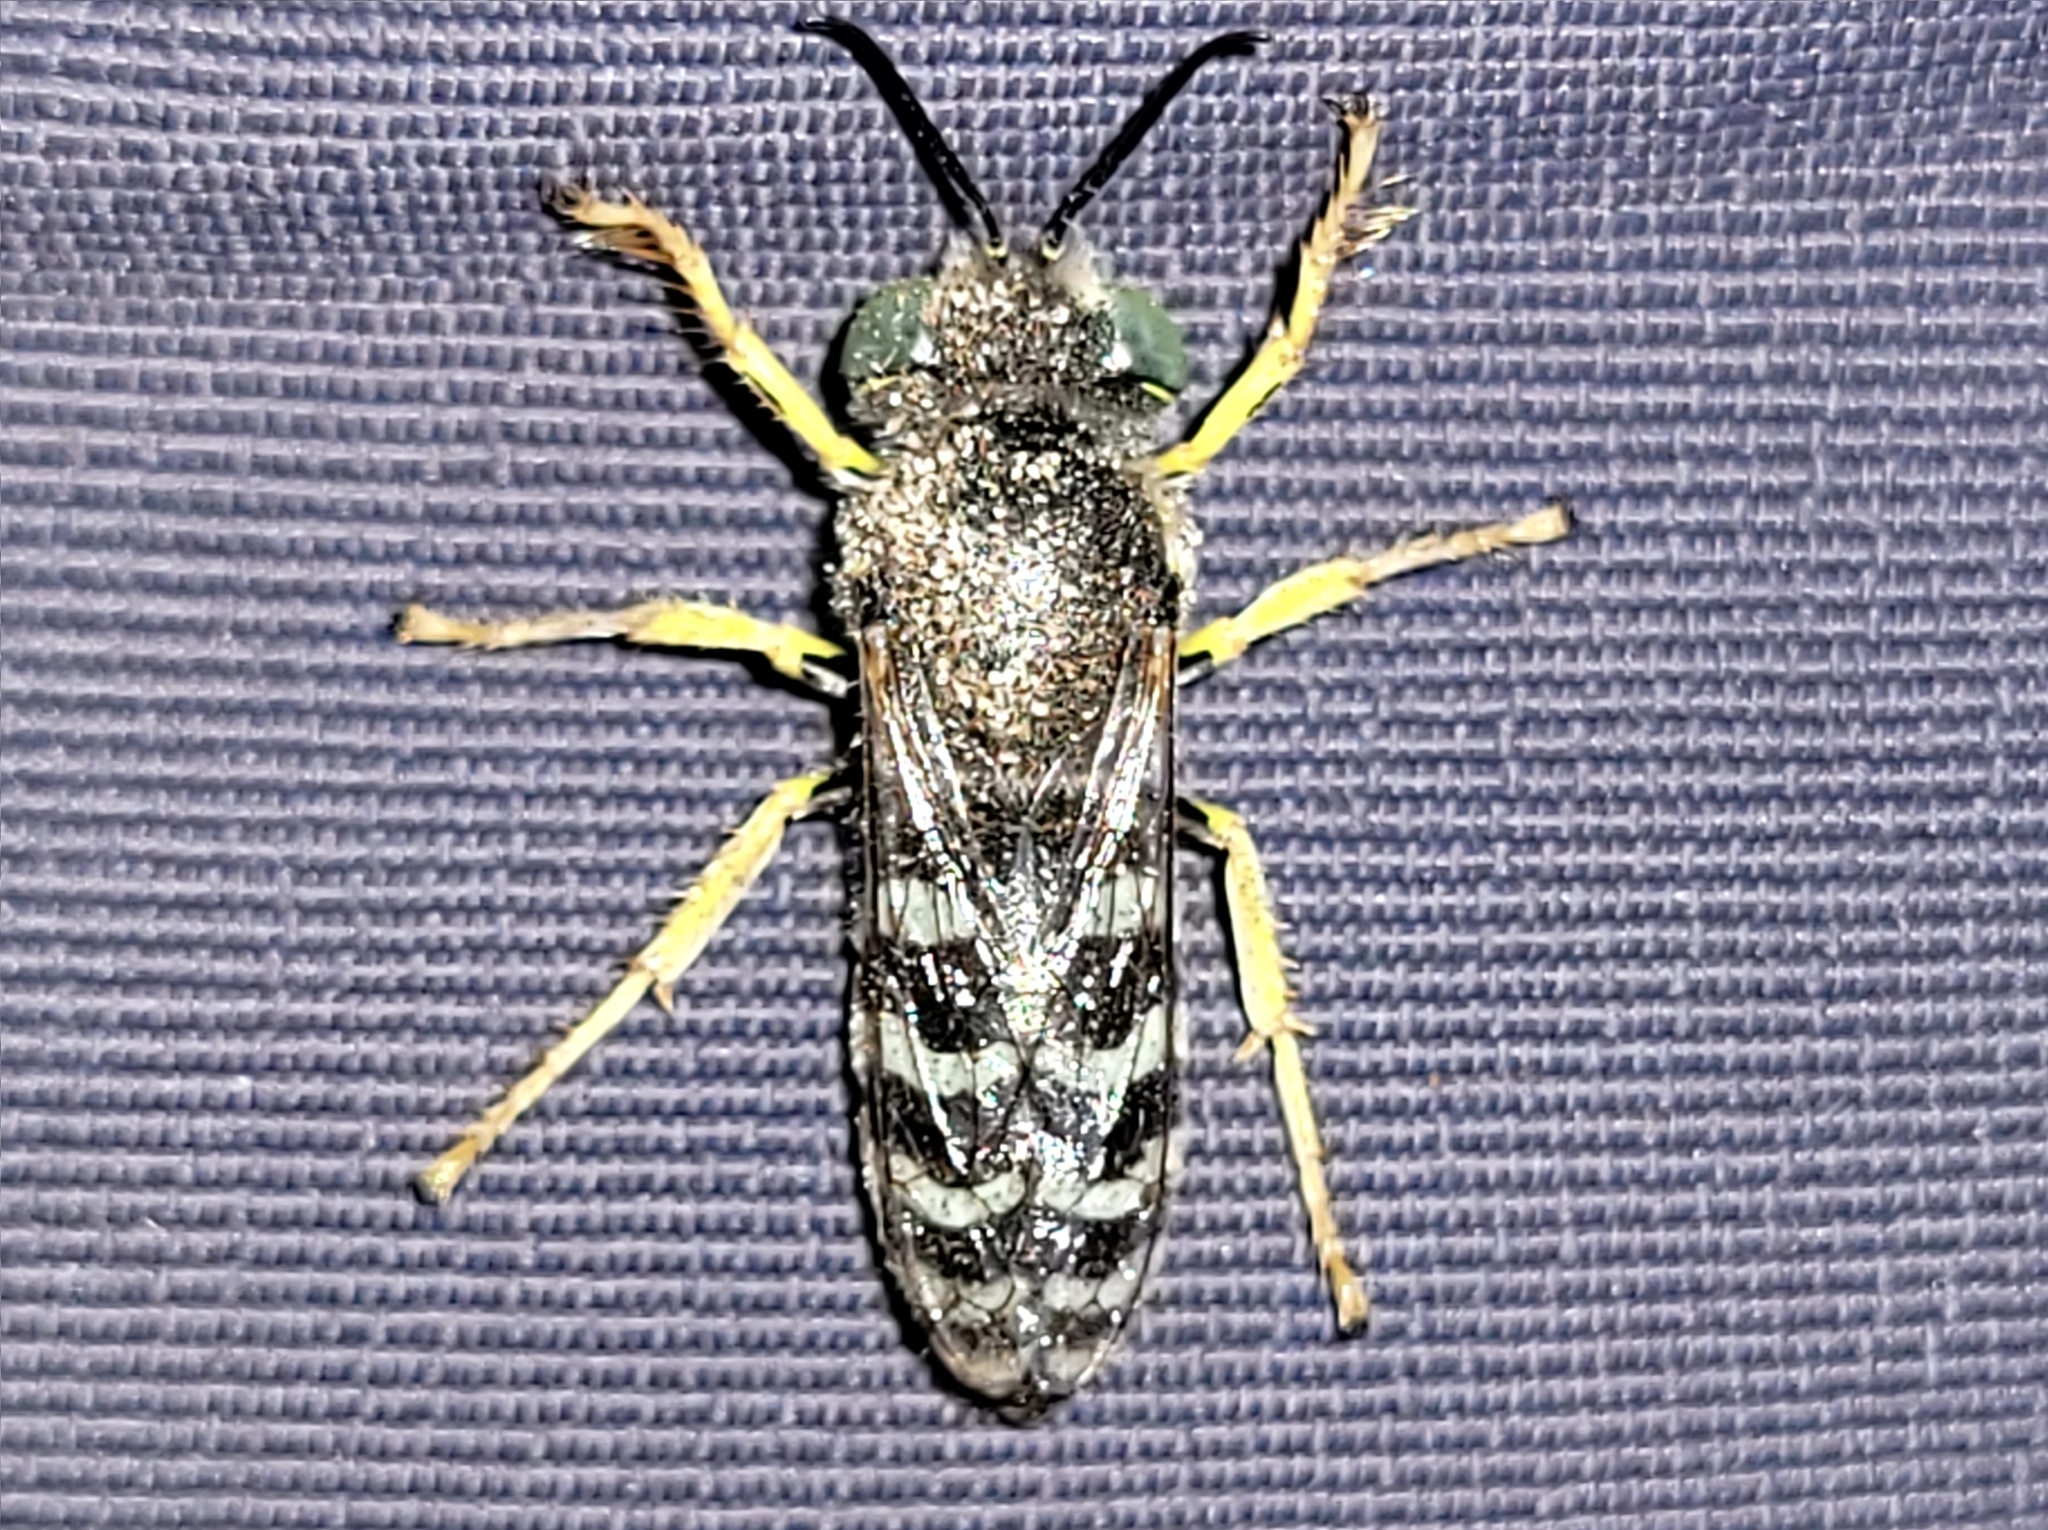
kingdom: Animalia
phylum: Arthropoda
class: Insecta
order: Hymenoptera
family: Crabronidae
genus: Bembix
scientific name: Bembix americana
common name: American sand wasp
